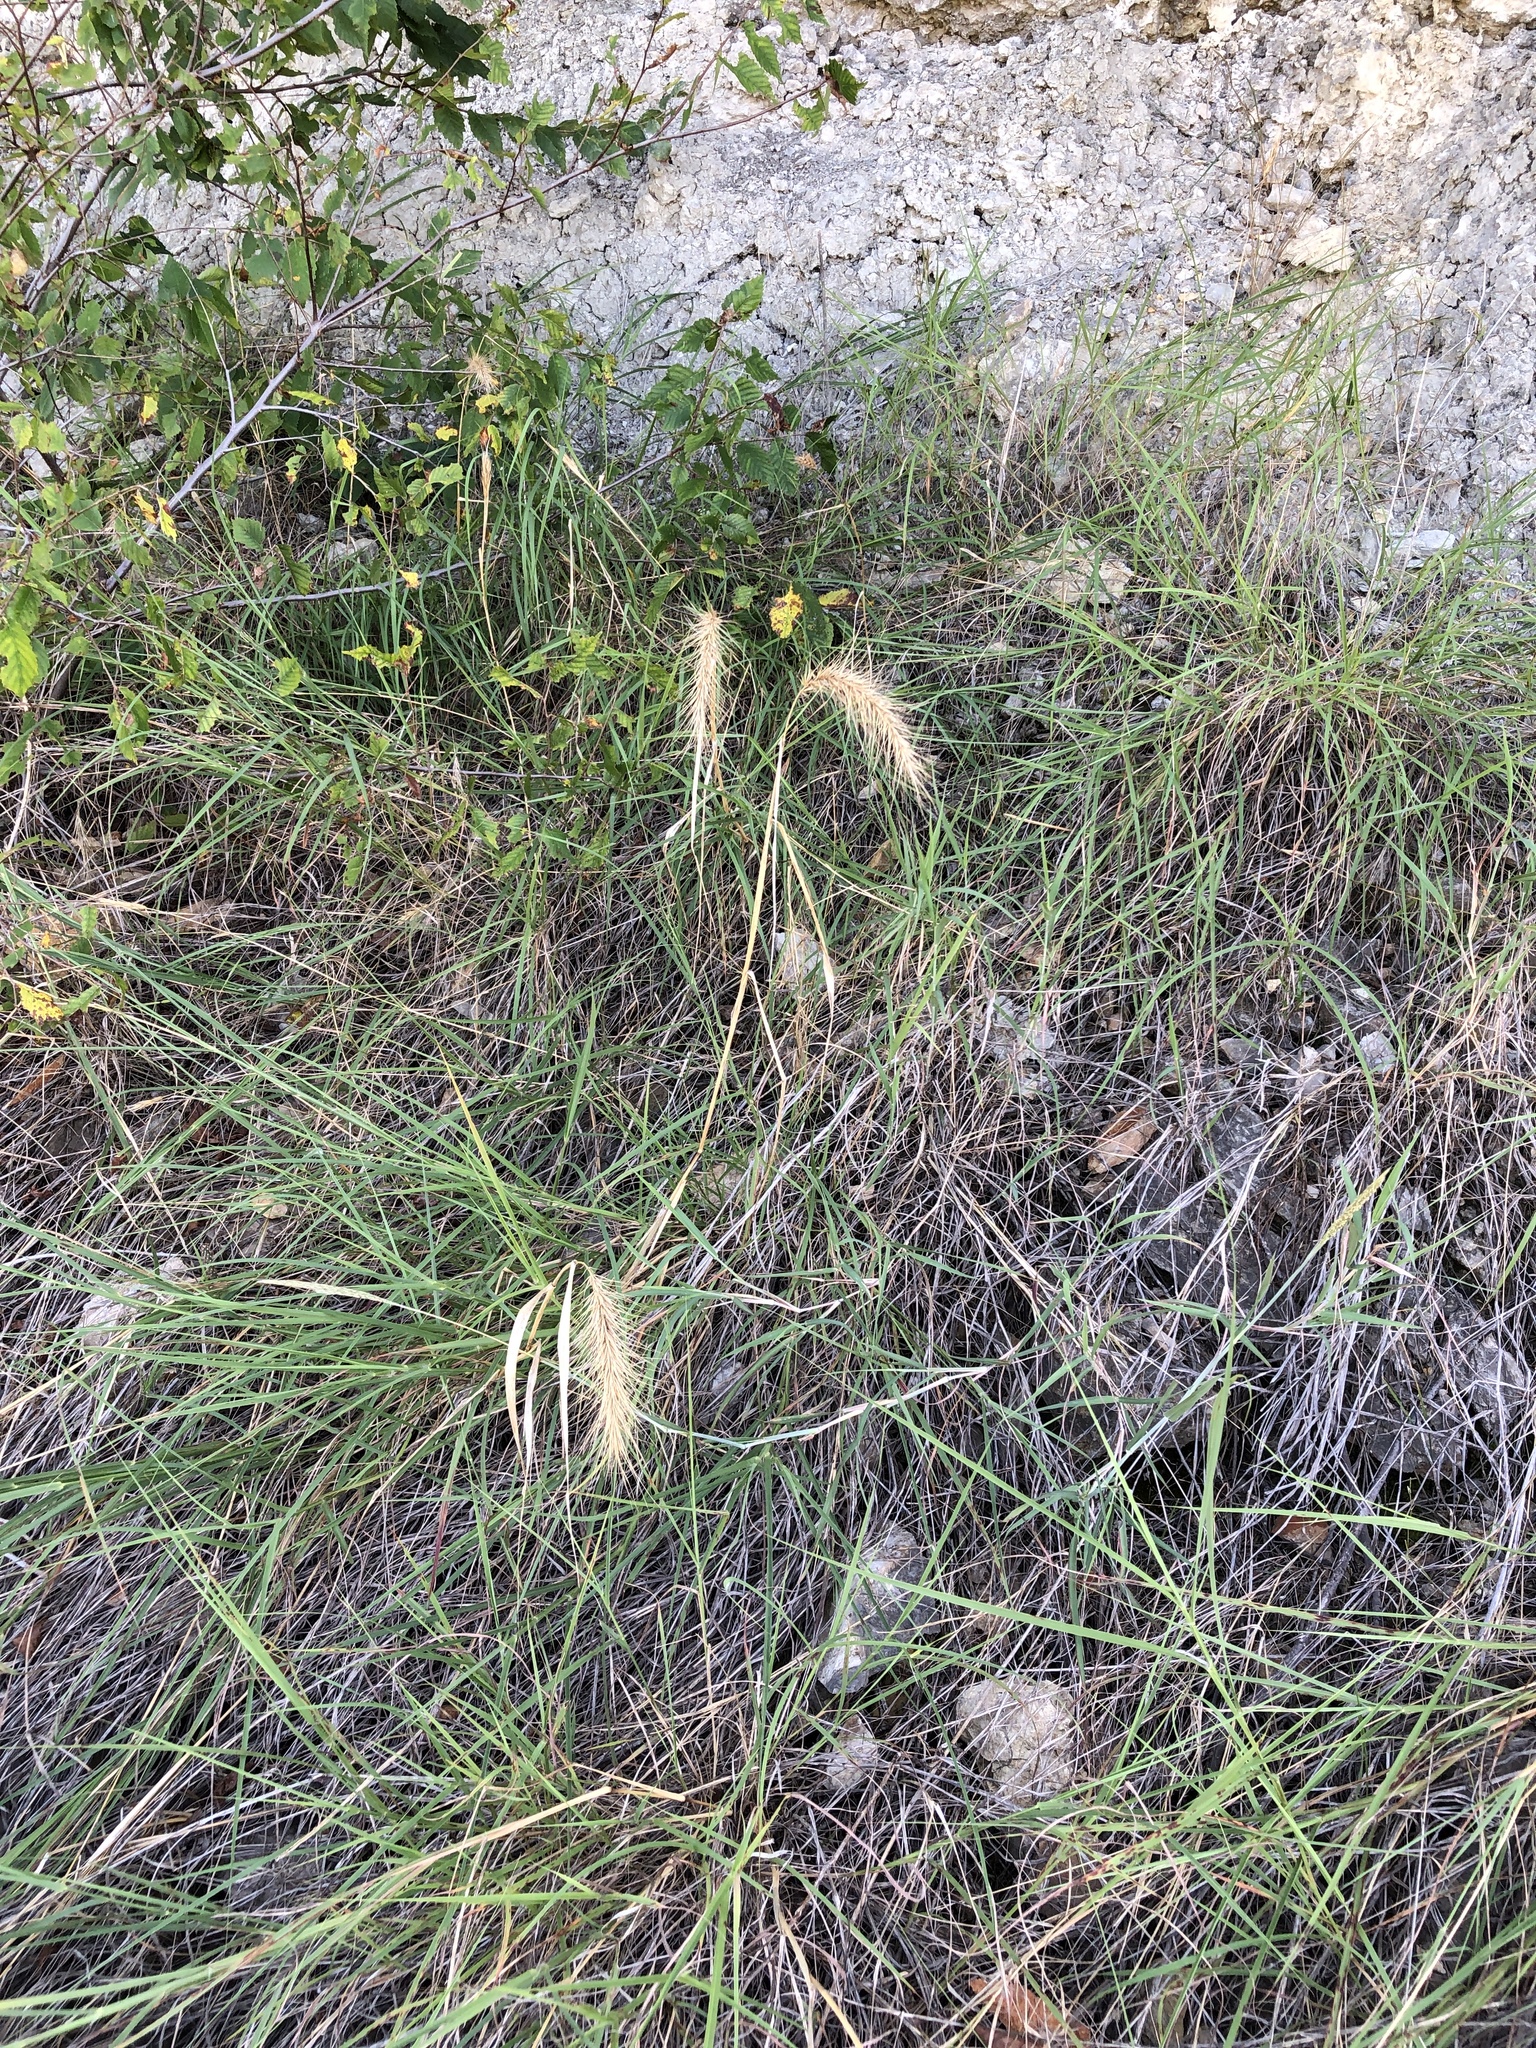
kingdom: Plantae
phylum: Tracheophyta
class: Liliopsida
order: Poales
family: Poaceae
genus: Elymus
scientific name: Elymus canadensis
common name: Canada wild rye
